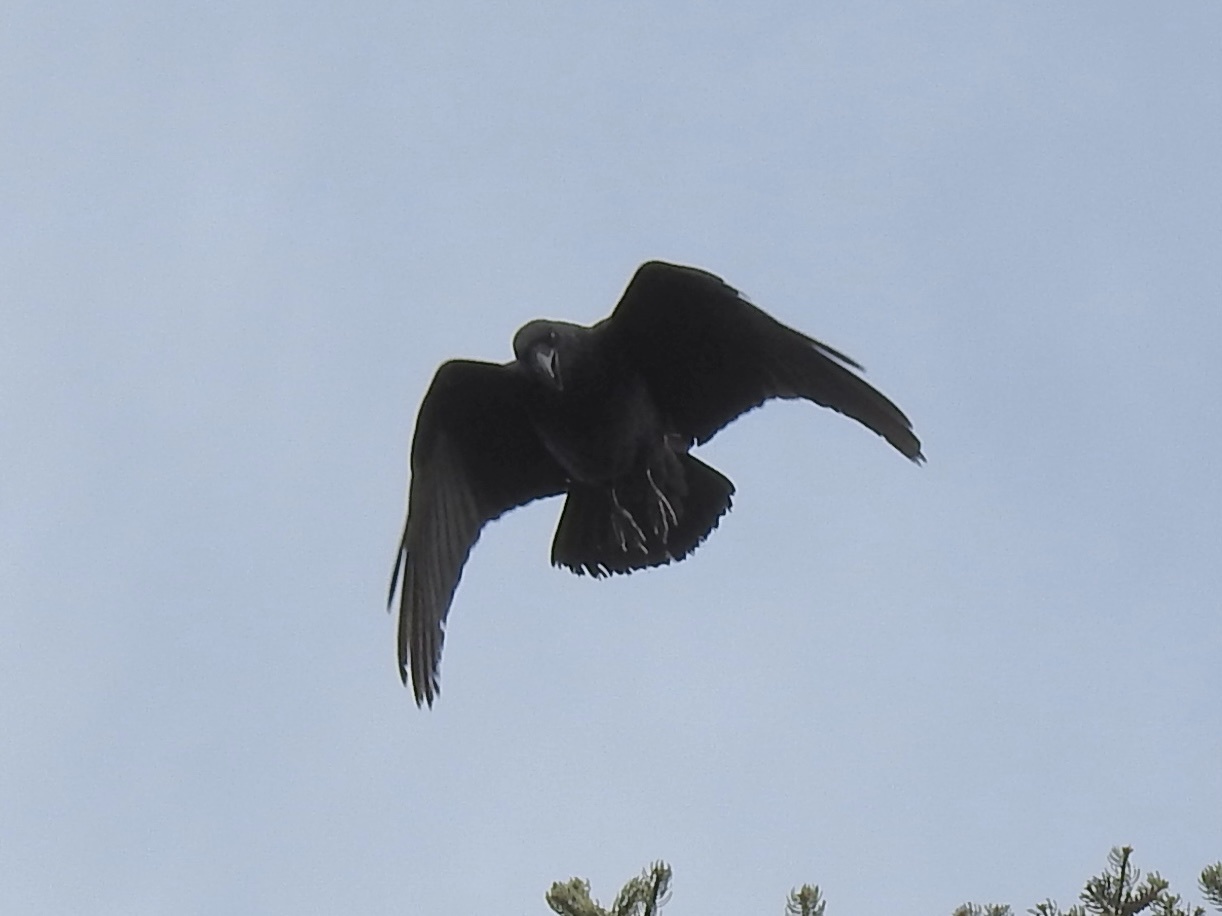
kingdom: Animalia
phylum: Chordata
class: Aves
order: Passeriformes
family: Corvidae
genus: Corvus
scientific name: Corvus corax
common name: Common raven
